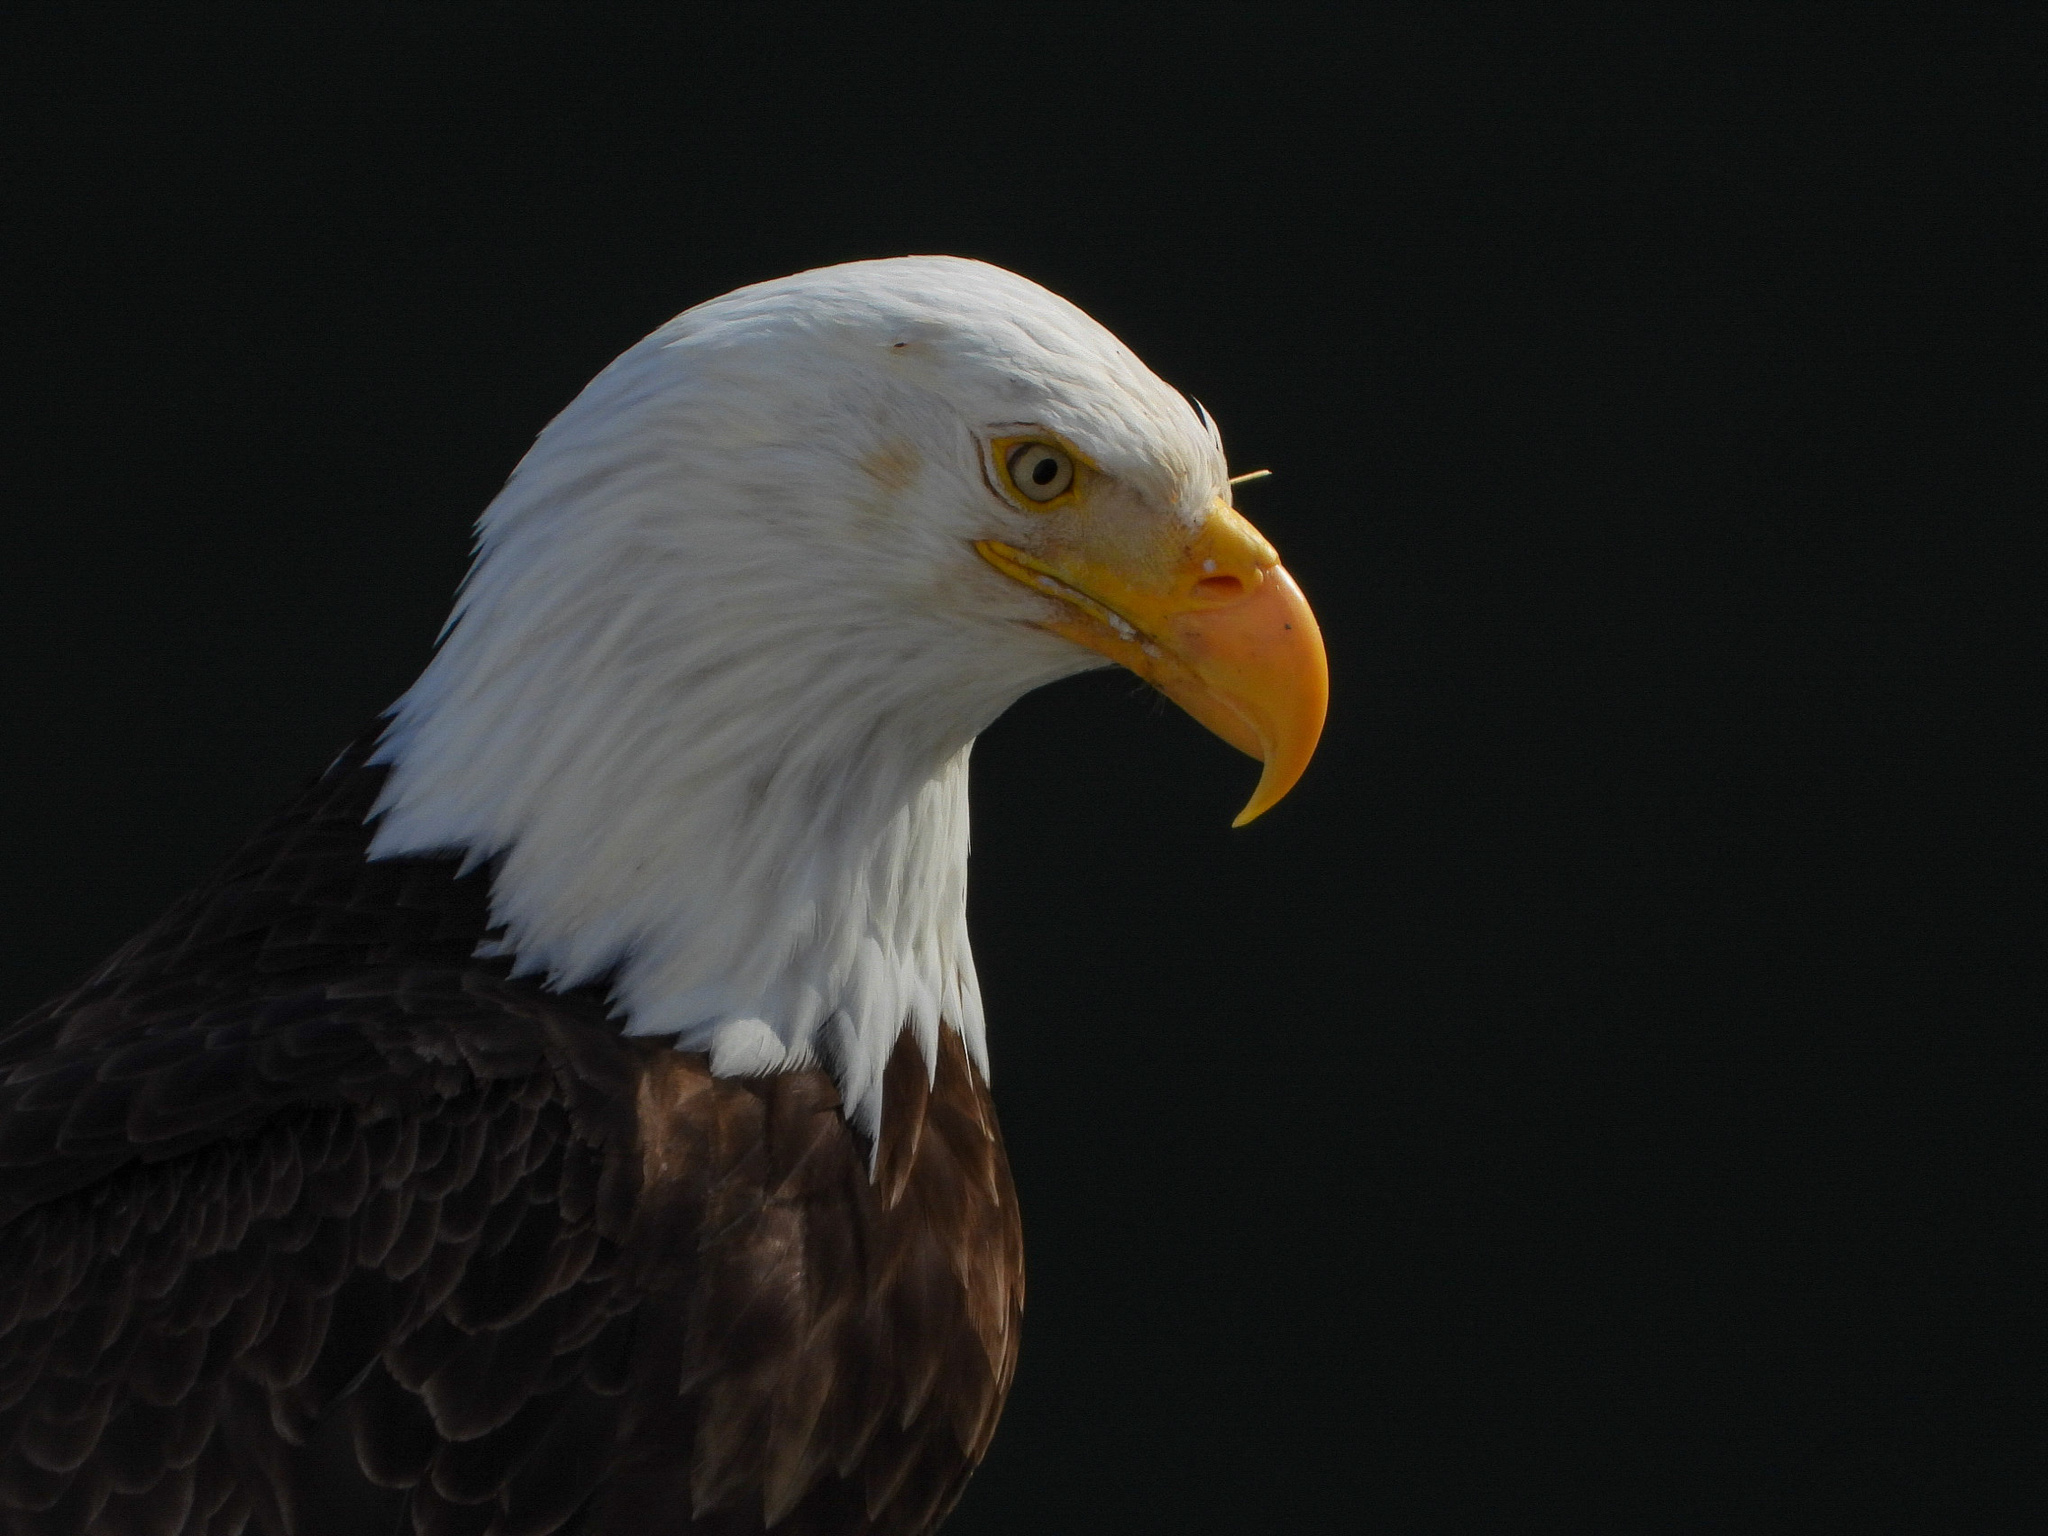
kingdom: Animalia
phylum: Chordata
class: Aves
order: Accipitriformes
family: Accipitridae
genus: Haliaeetus
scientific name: Haliaeetus leucocephalus
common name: Bald eagle
